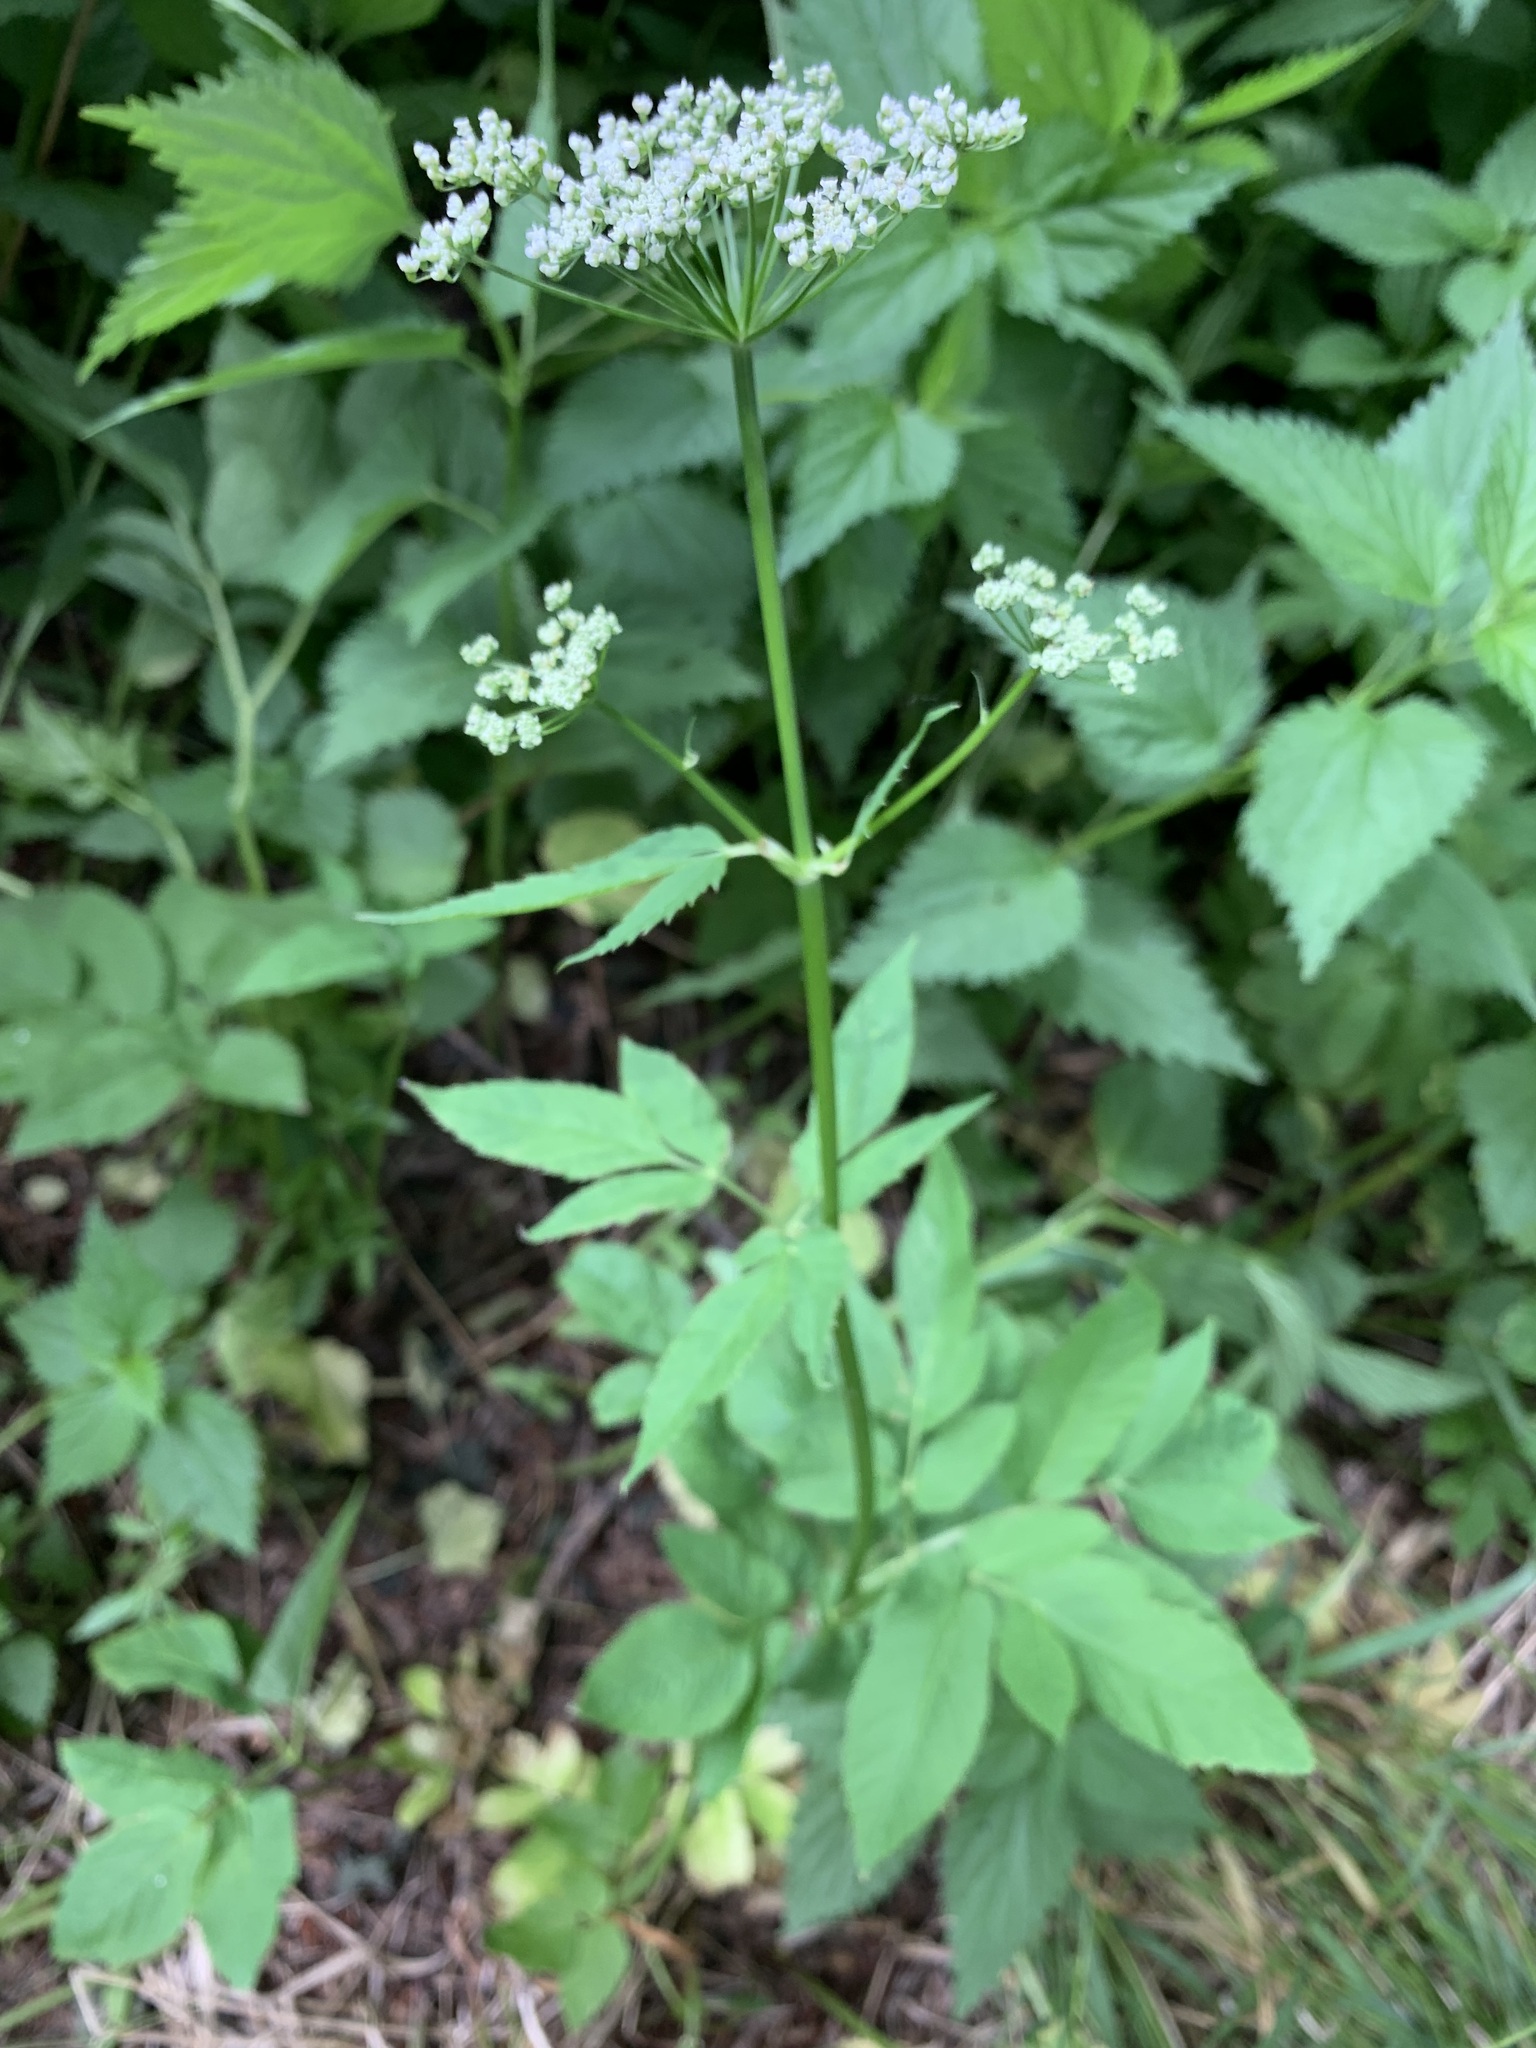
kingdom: Plantae
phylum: Tracheophyta
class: Magnoliopsida
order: Apiales
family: Apiaceae
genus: Aegopodium
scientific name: Aegopodium podagraria
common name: Ground-elder
